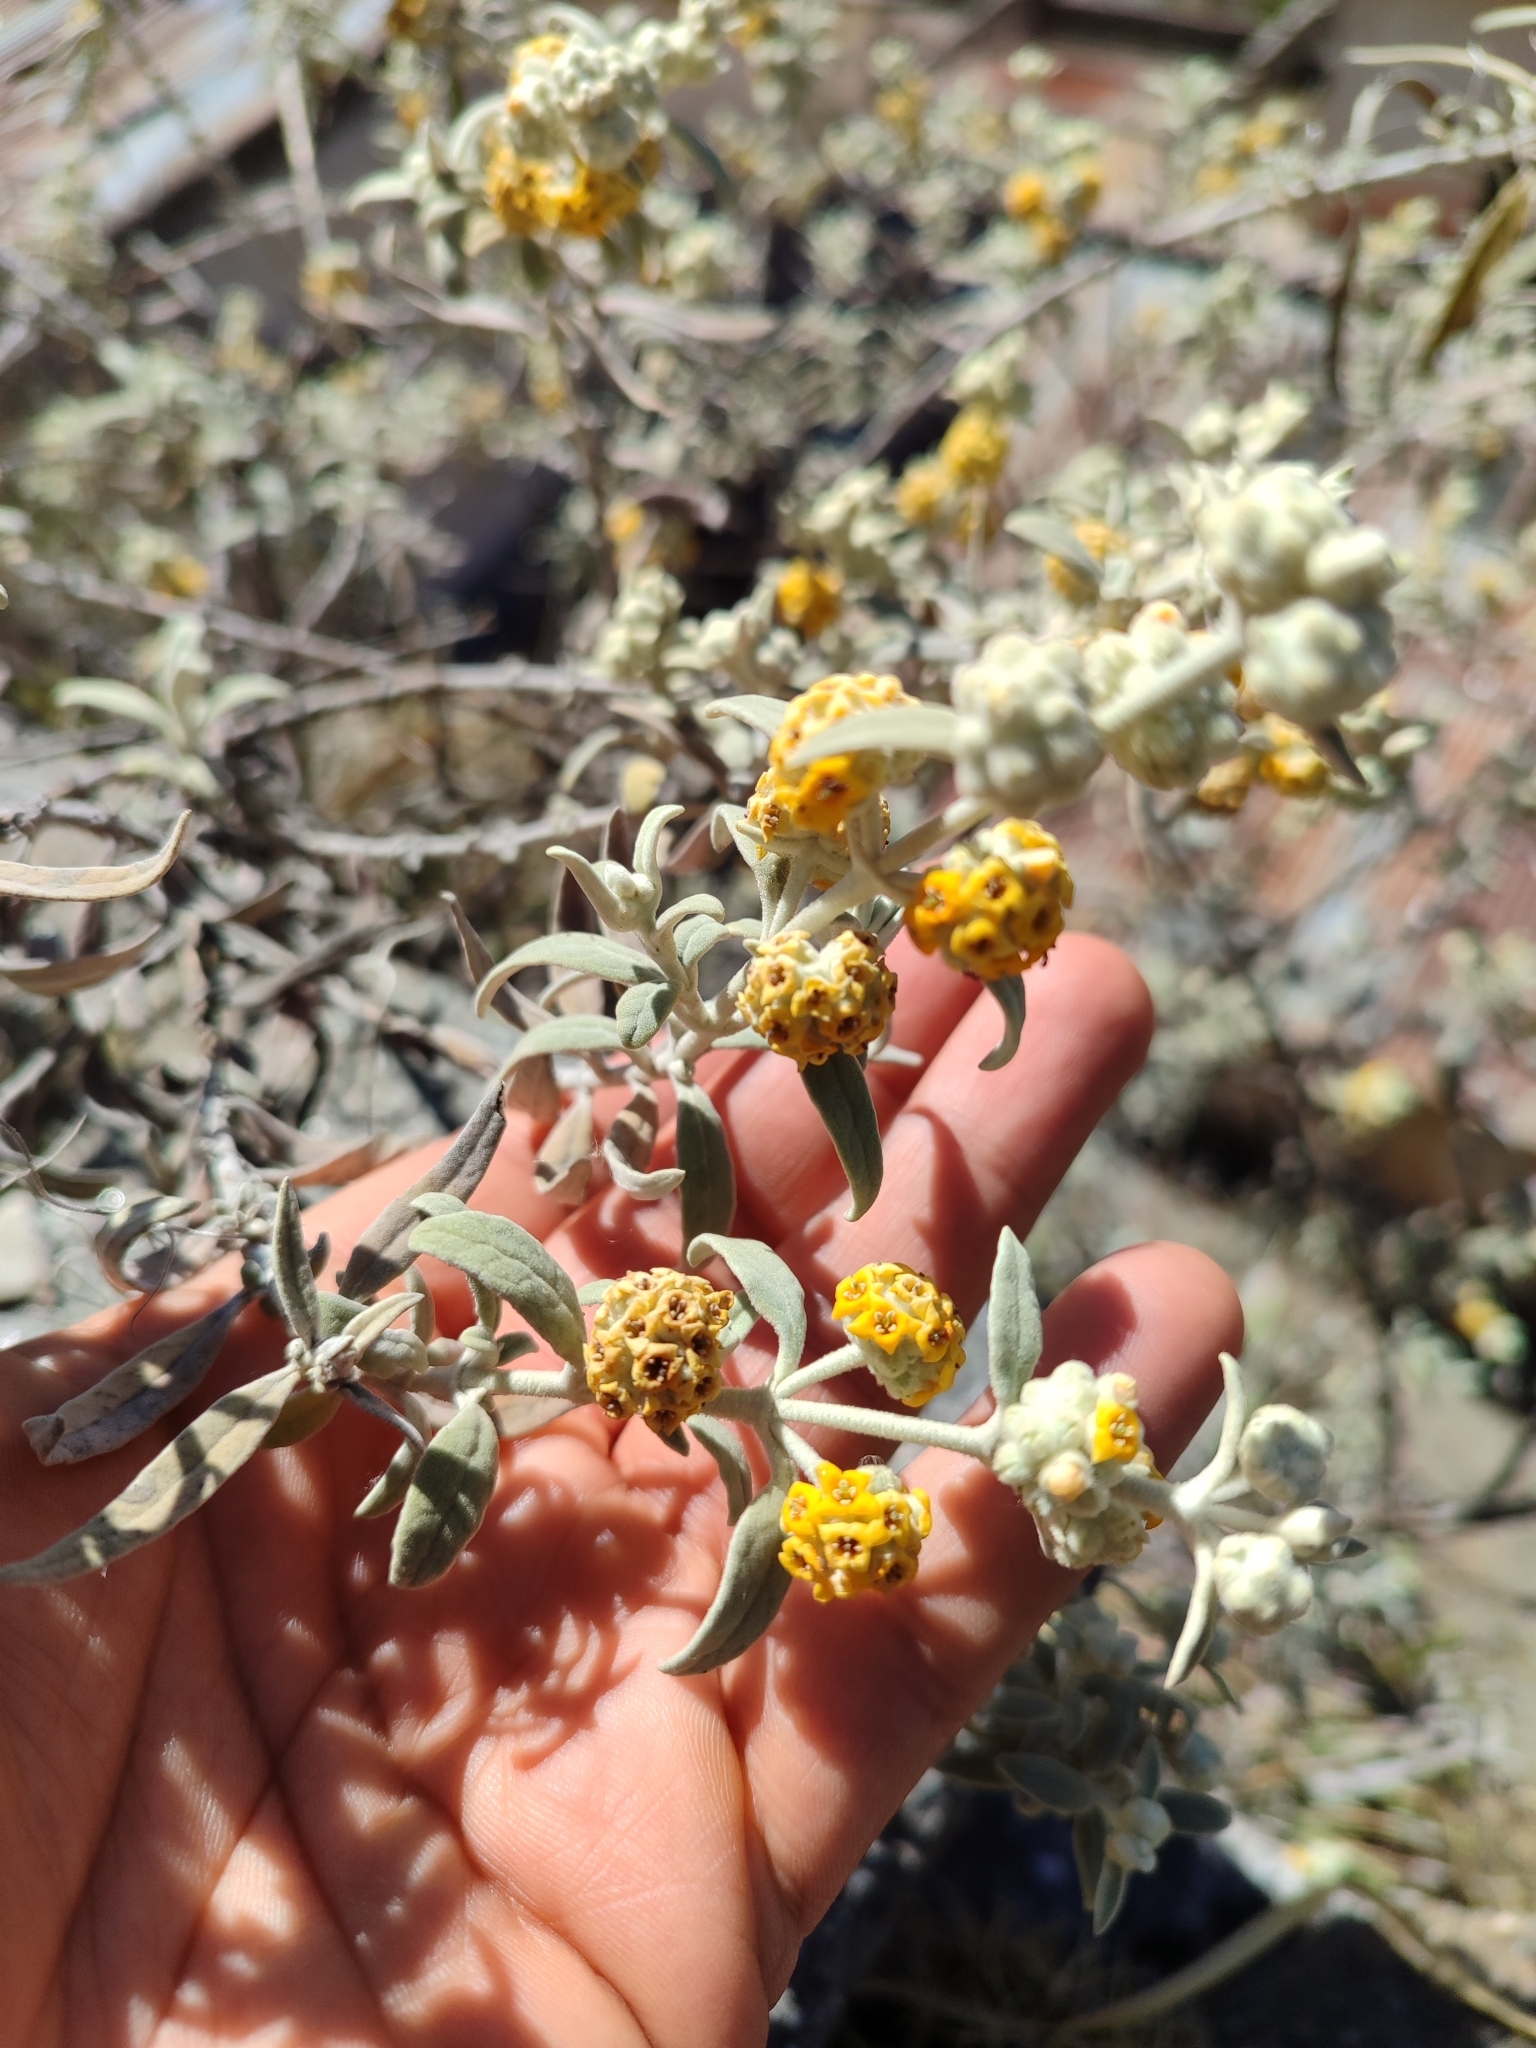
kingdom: Plantae
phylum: Tracheophyta
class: Magnoliopsida
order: Lamiales
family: Scrophulariaceae
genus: Buddleja
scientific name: Buddleja cordobensis
